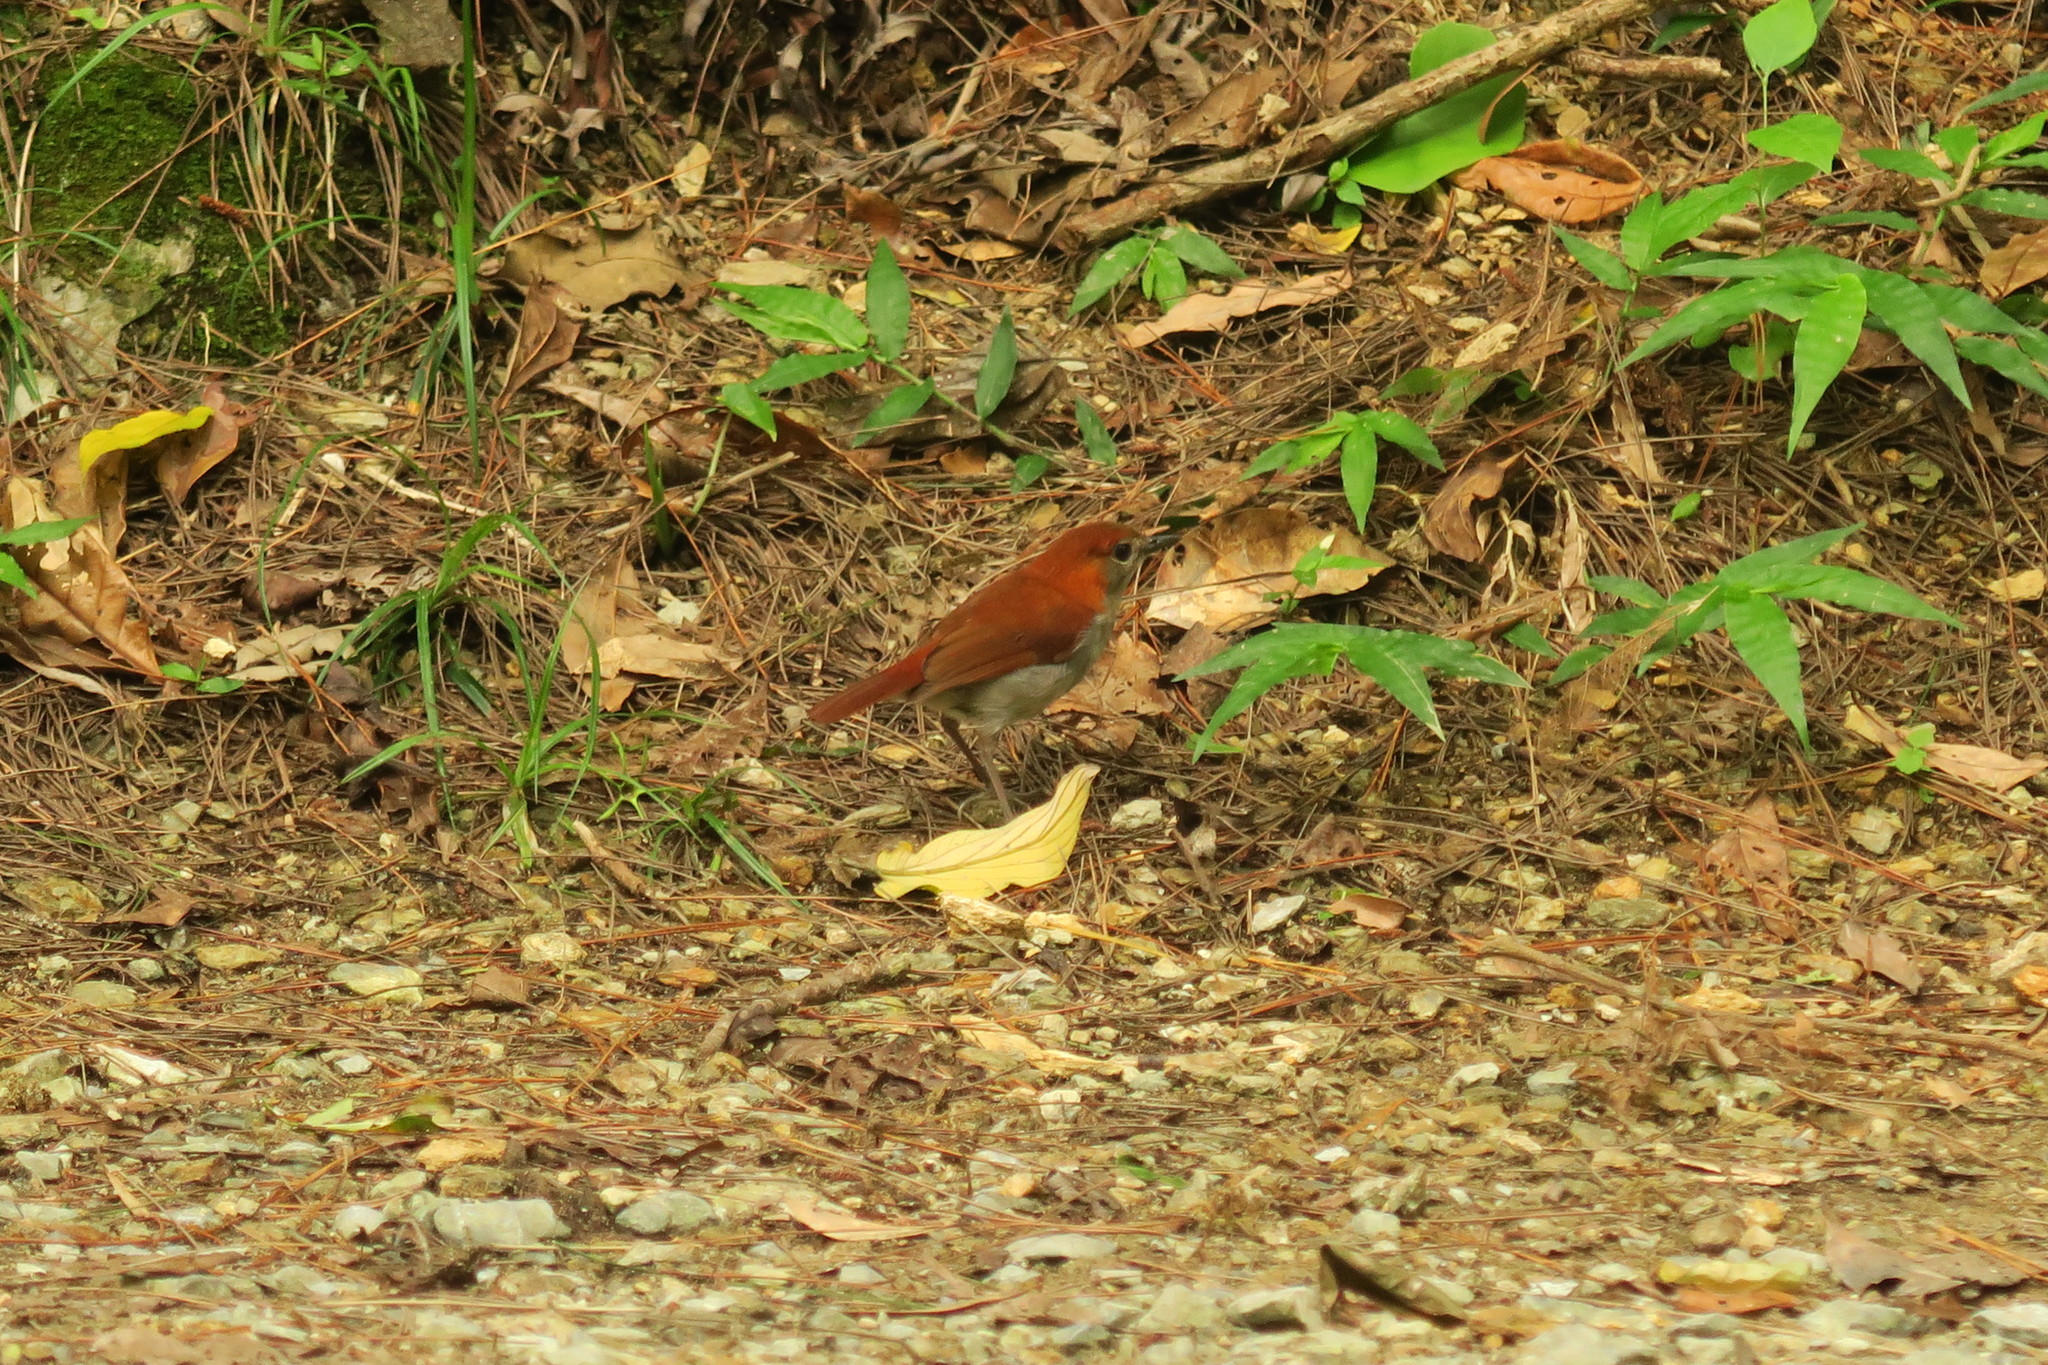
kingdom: Animalia
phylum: Chordata
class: Aves
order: Passeriformes
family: Muscicapidae
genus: Erithacus
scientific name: Erithacus komadori
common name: Ryukyu robin
